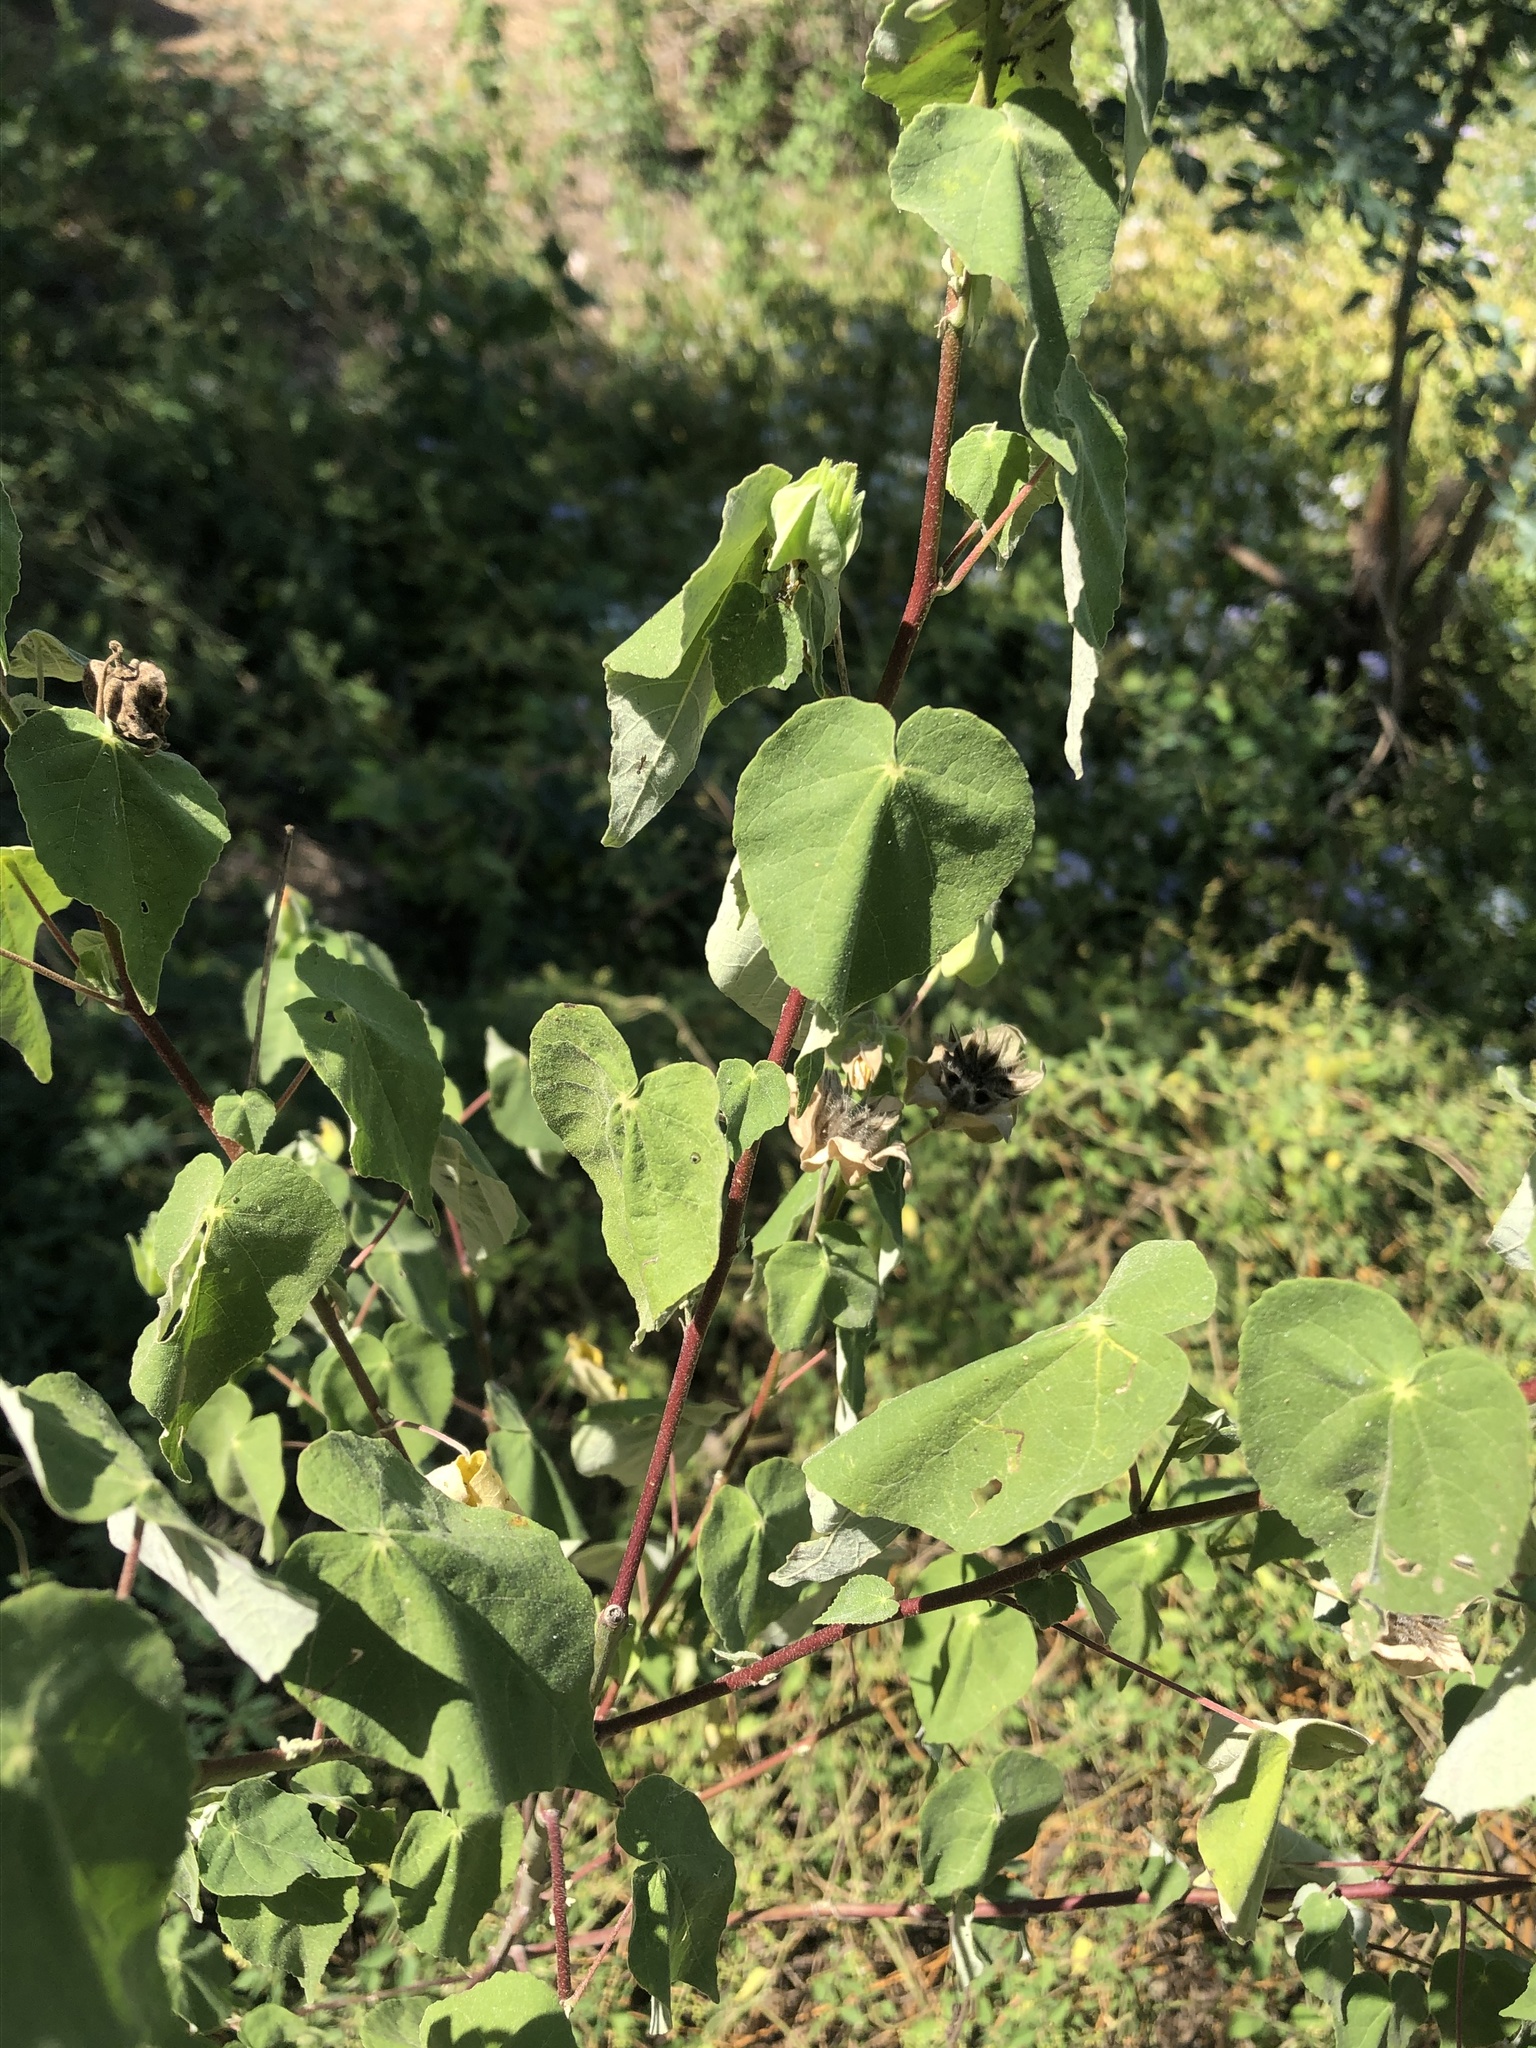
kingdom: Plantae
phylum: Tracheophyta
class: Magnoliopsida
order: Malvales
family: Malvaceae
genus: Abutilon
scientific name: Abutilon hypoleucum
